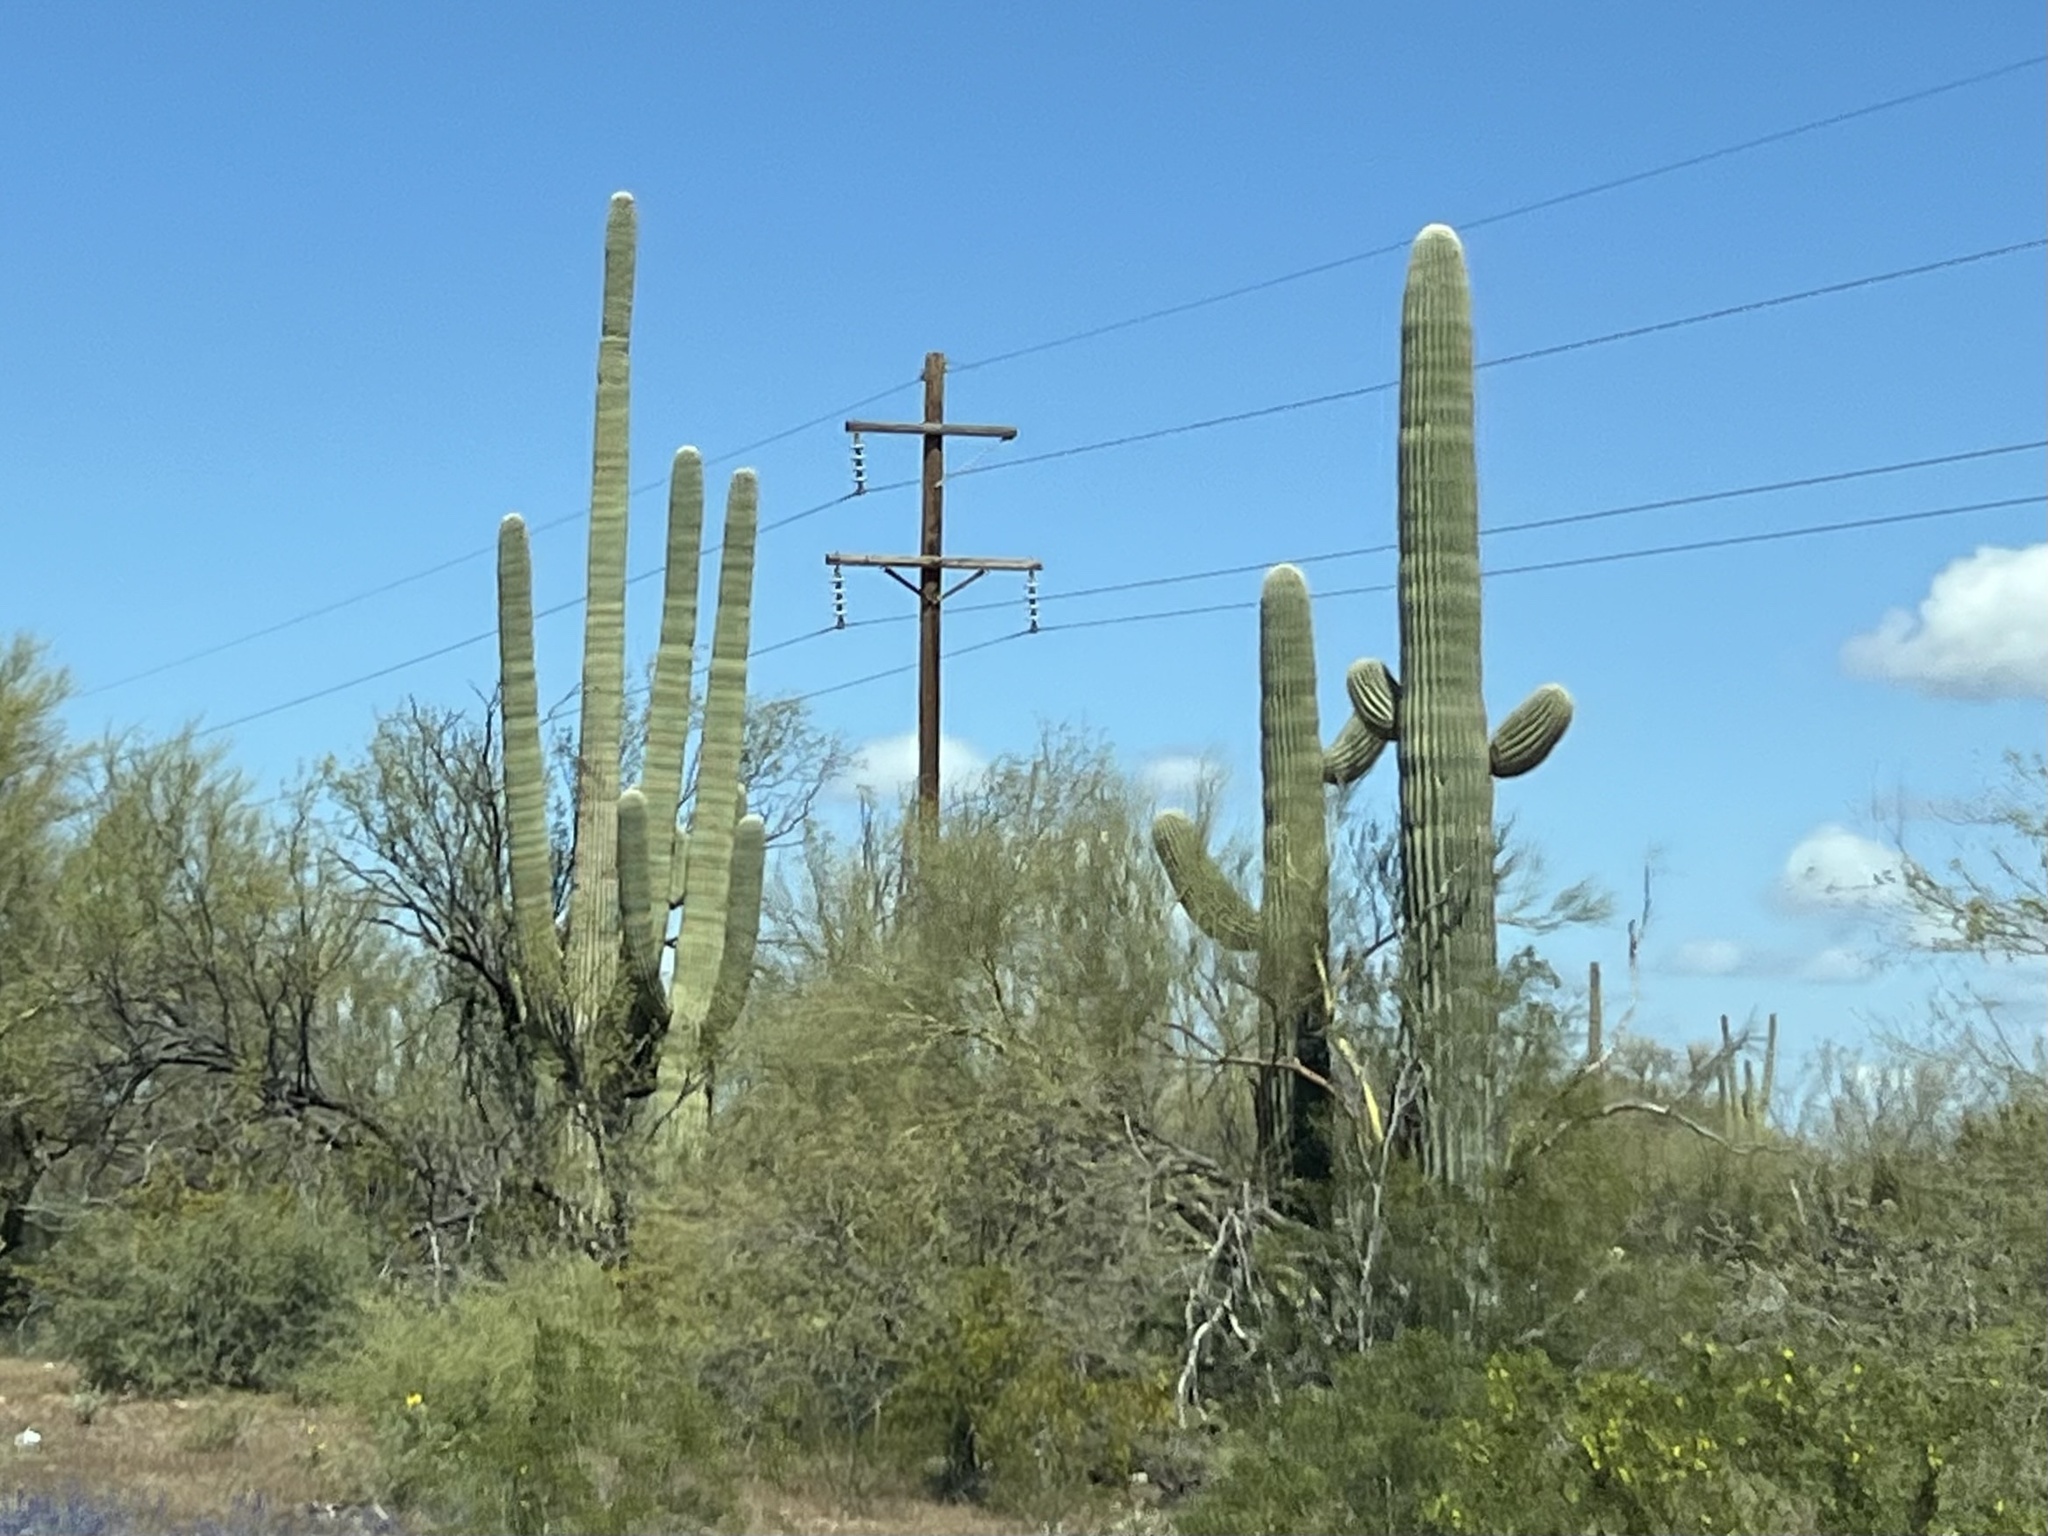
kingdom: Plantae
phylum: Tracheophyta
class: Magnoliopsida
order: Caryophyllales
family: Cactaceae
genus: Carnegiea
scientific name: Carnegiea gigantea
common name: Saguaro
